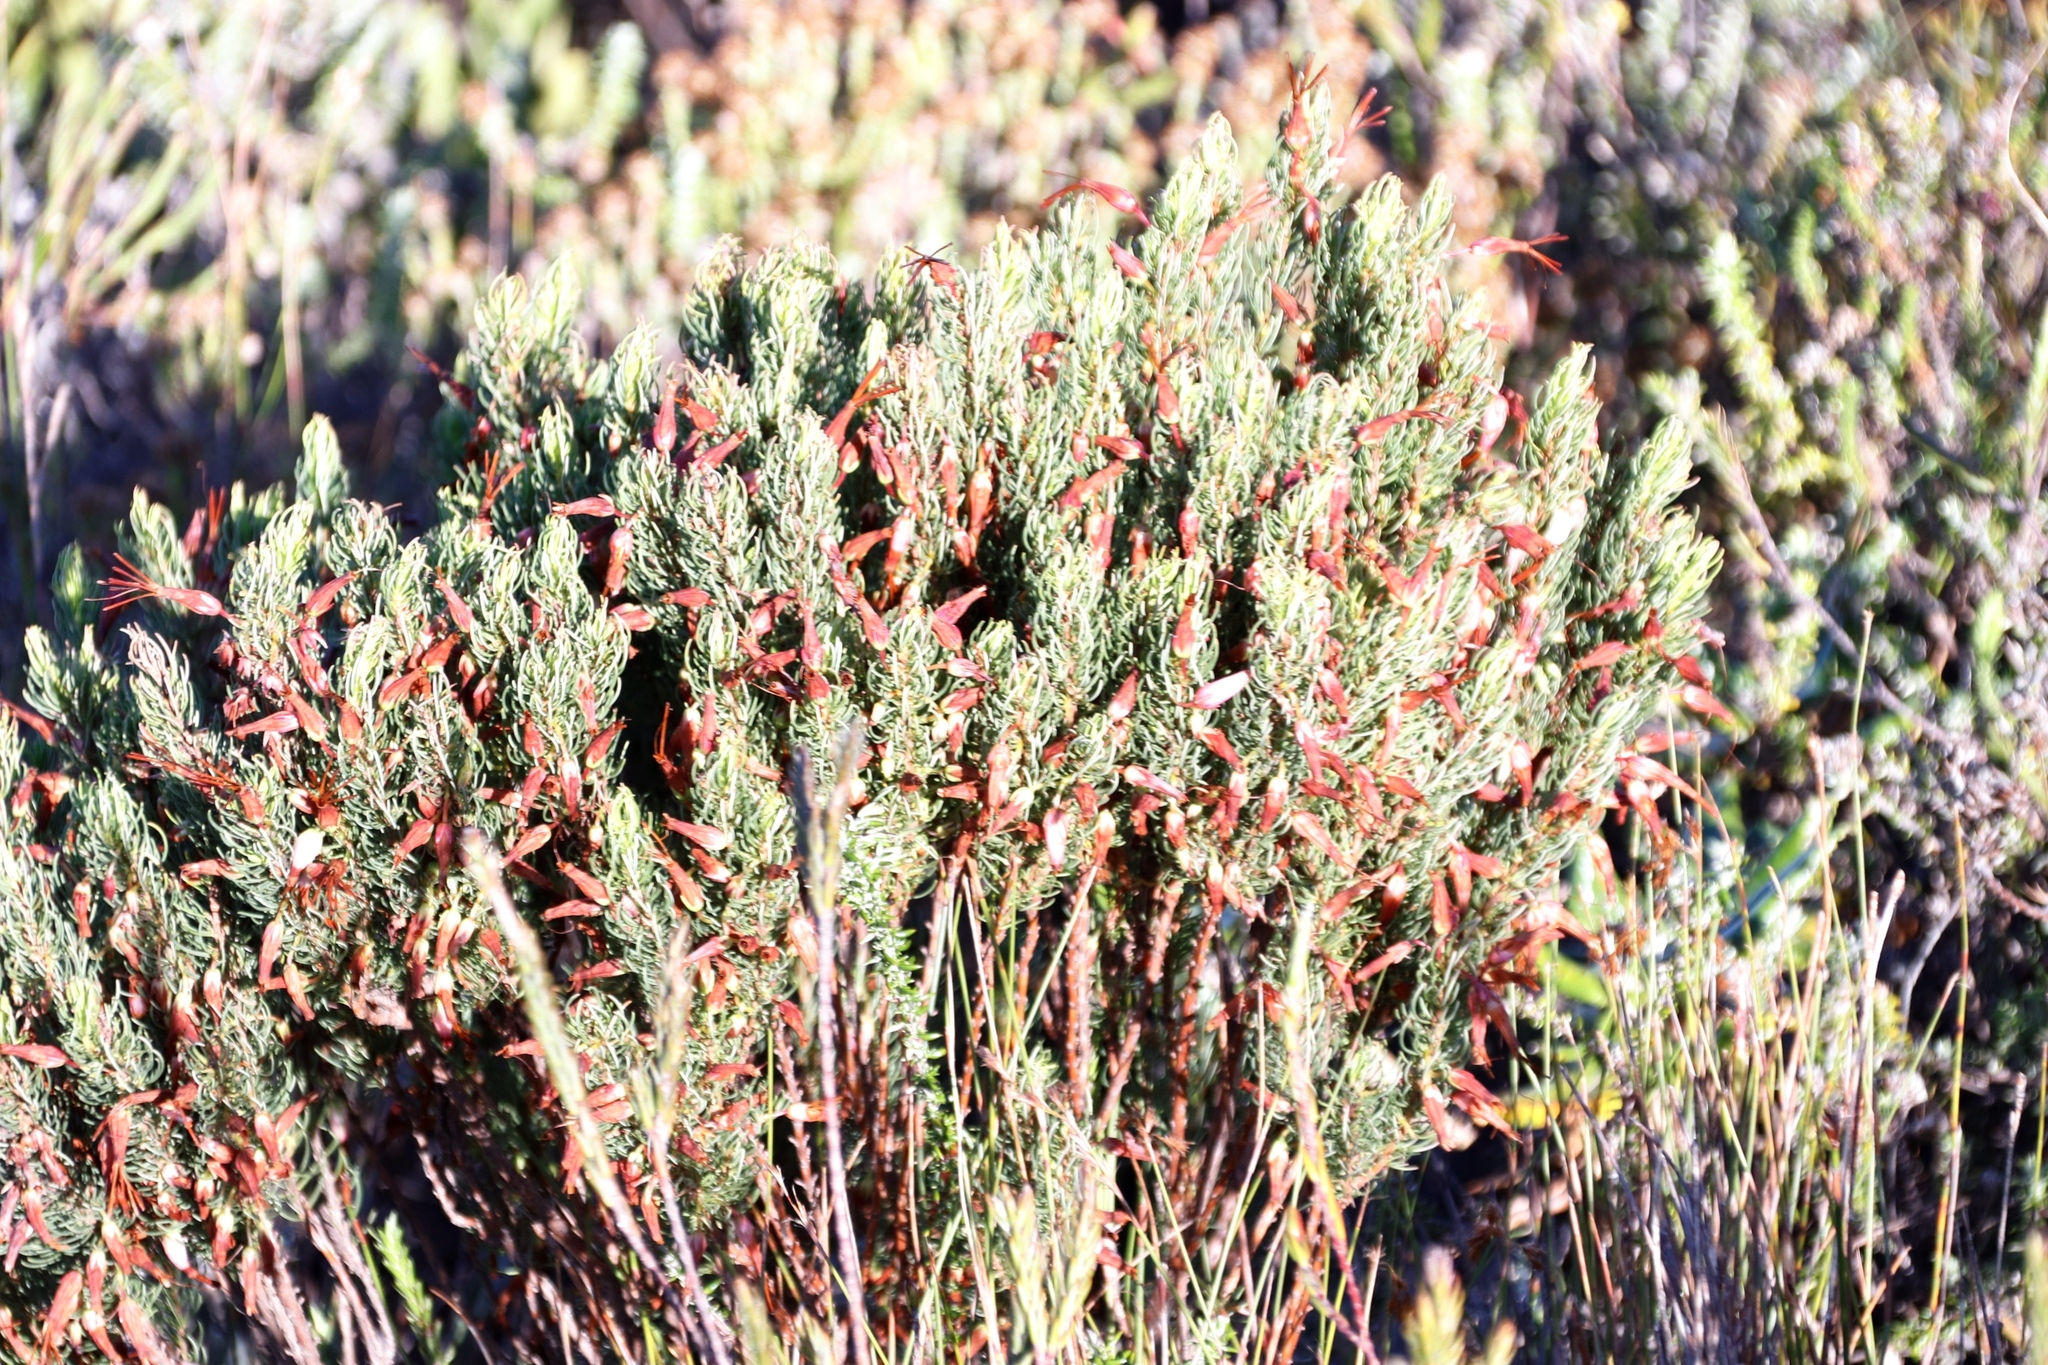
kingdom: Plantae
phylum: Tracheophyta
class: Magnoliopsida
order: Ericales
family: Ericaceae
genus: Erica
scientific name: Erica plukenetii
